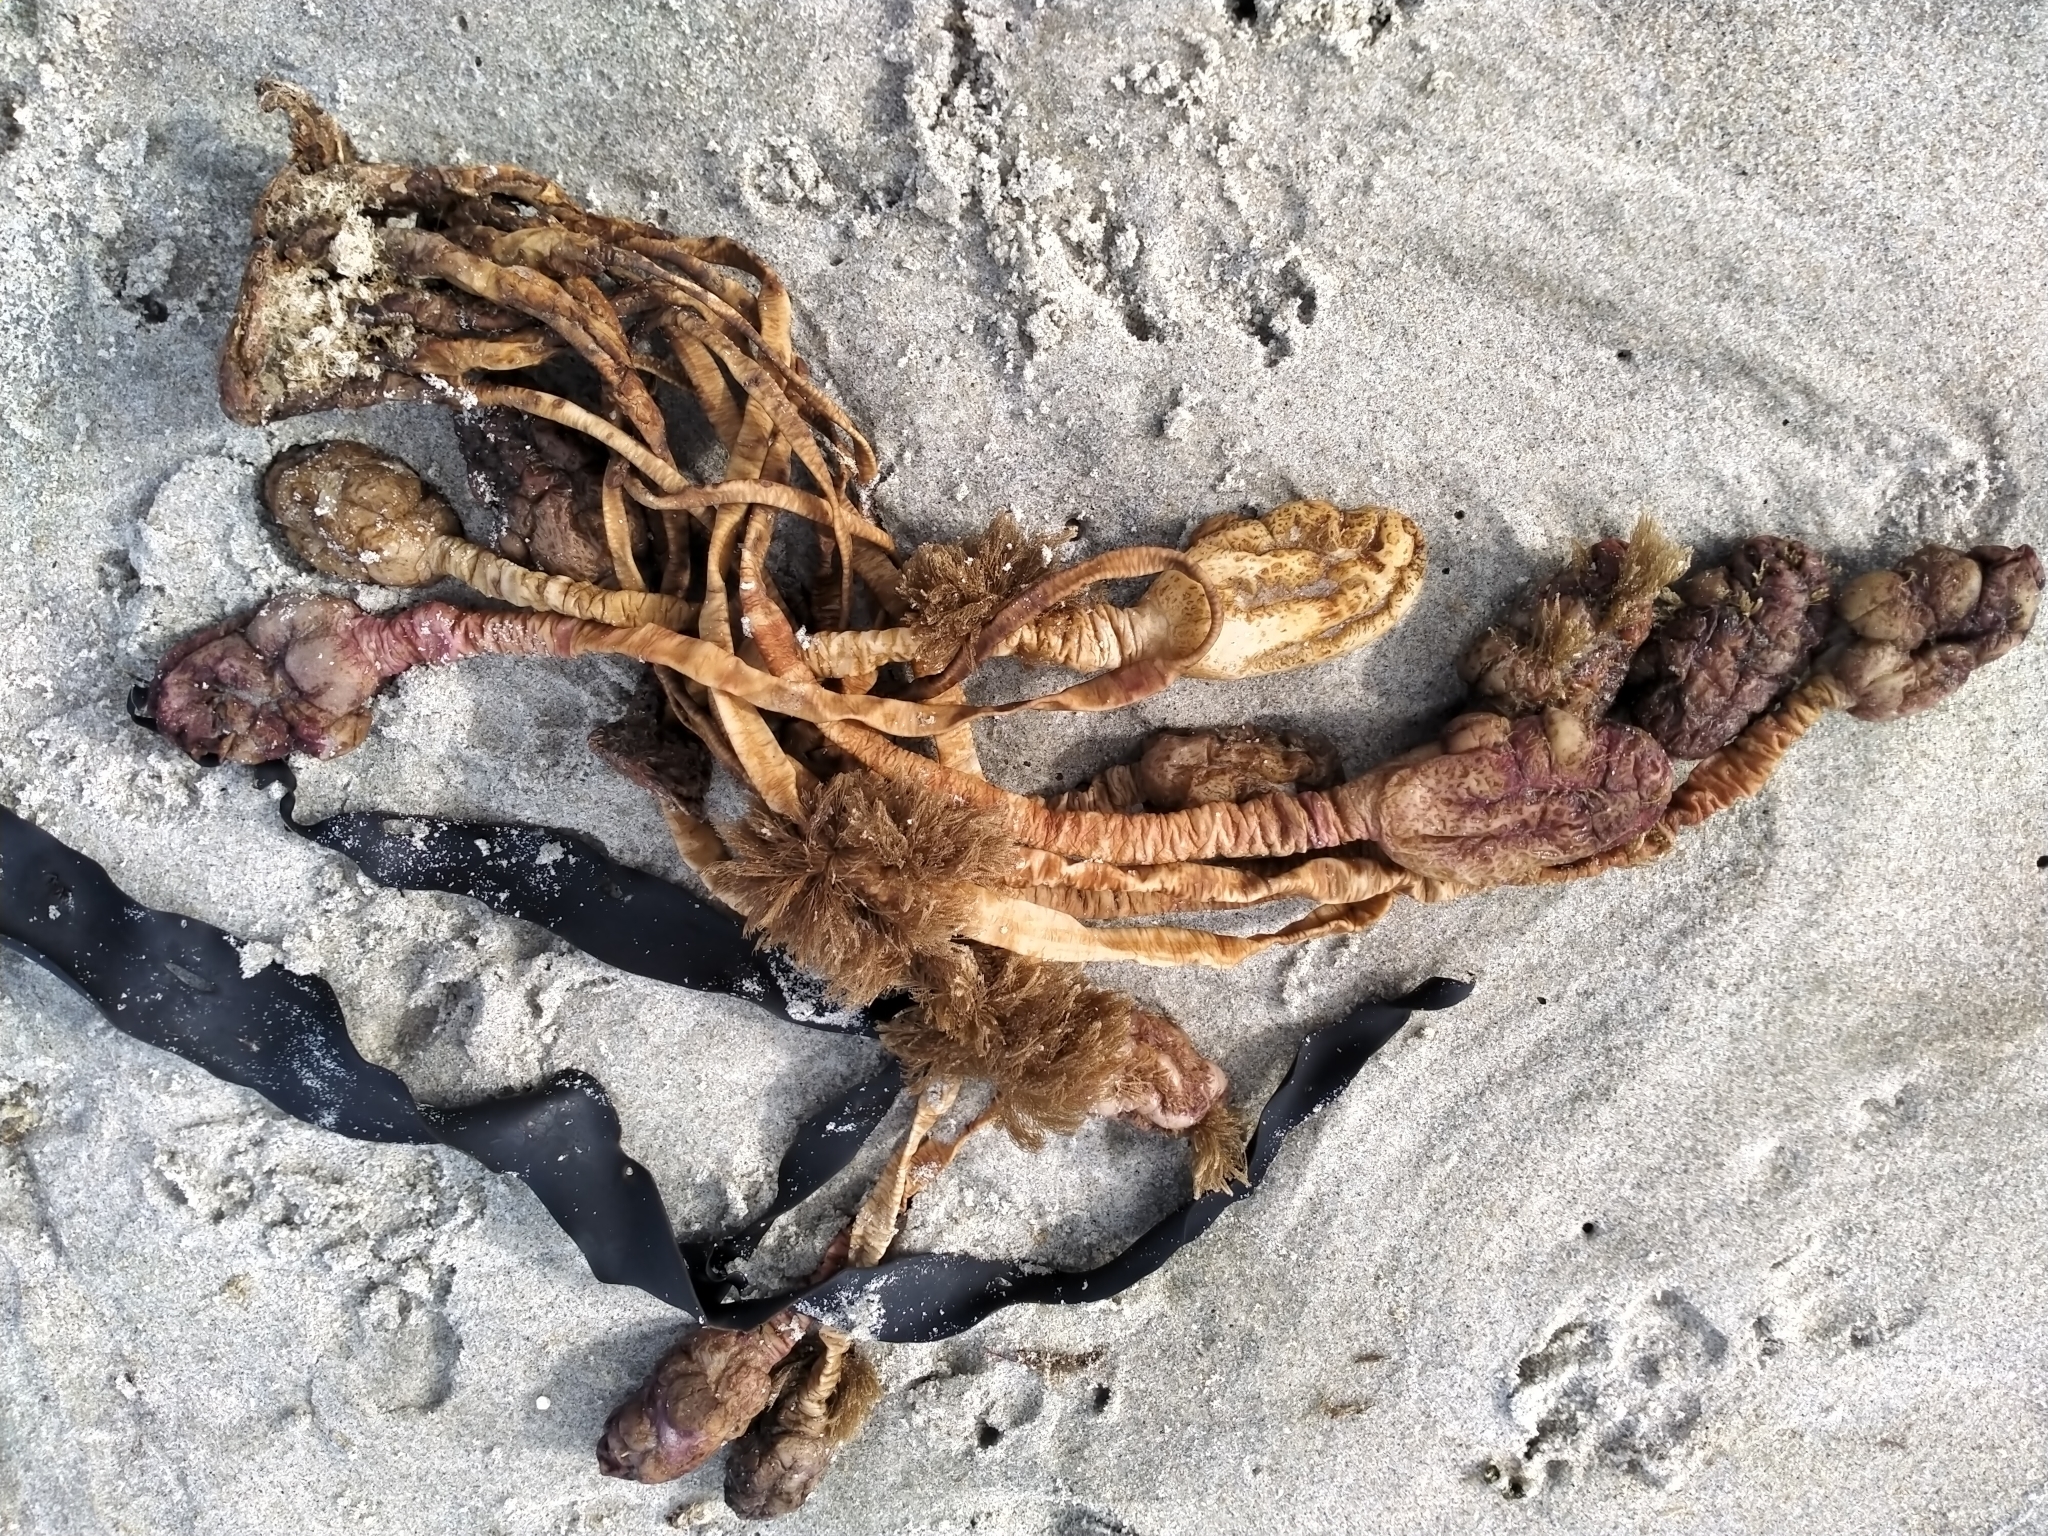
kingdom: Animalia
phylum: Chordata
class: Ascidiacea
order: Stolidobranchia
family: Pyuridae
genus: Pyura
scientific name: Pyura pachydermatina
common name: Sea tulip
